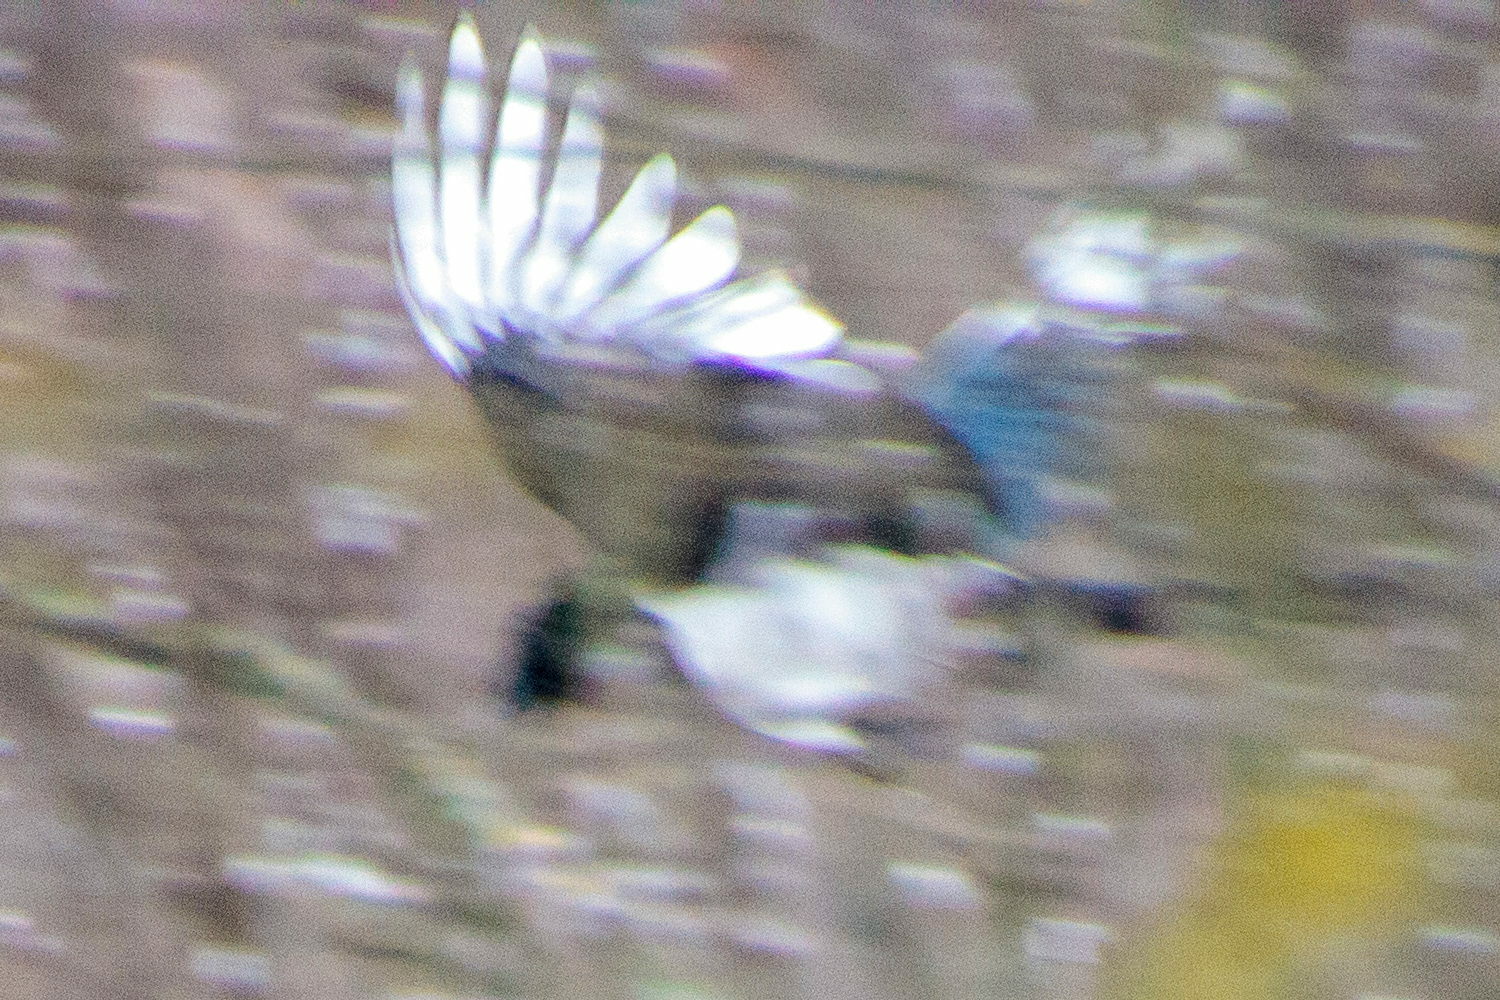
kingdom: Animalia
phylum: Chordata
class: Aves
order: Passeriformes
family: Corvidae
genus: Pica
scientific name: Pica pica
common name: Eurasian magpie
